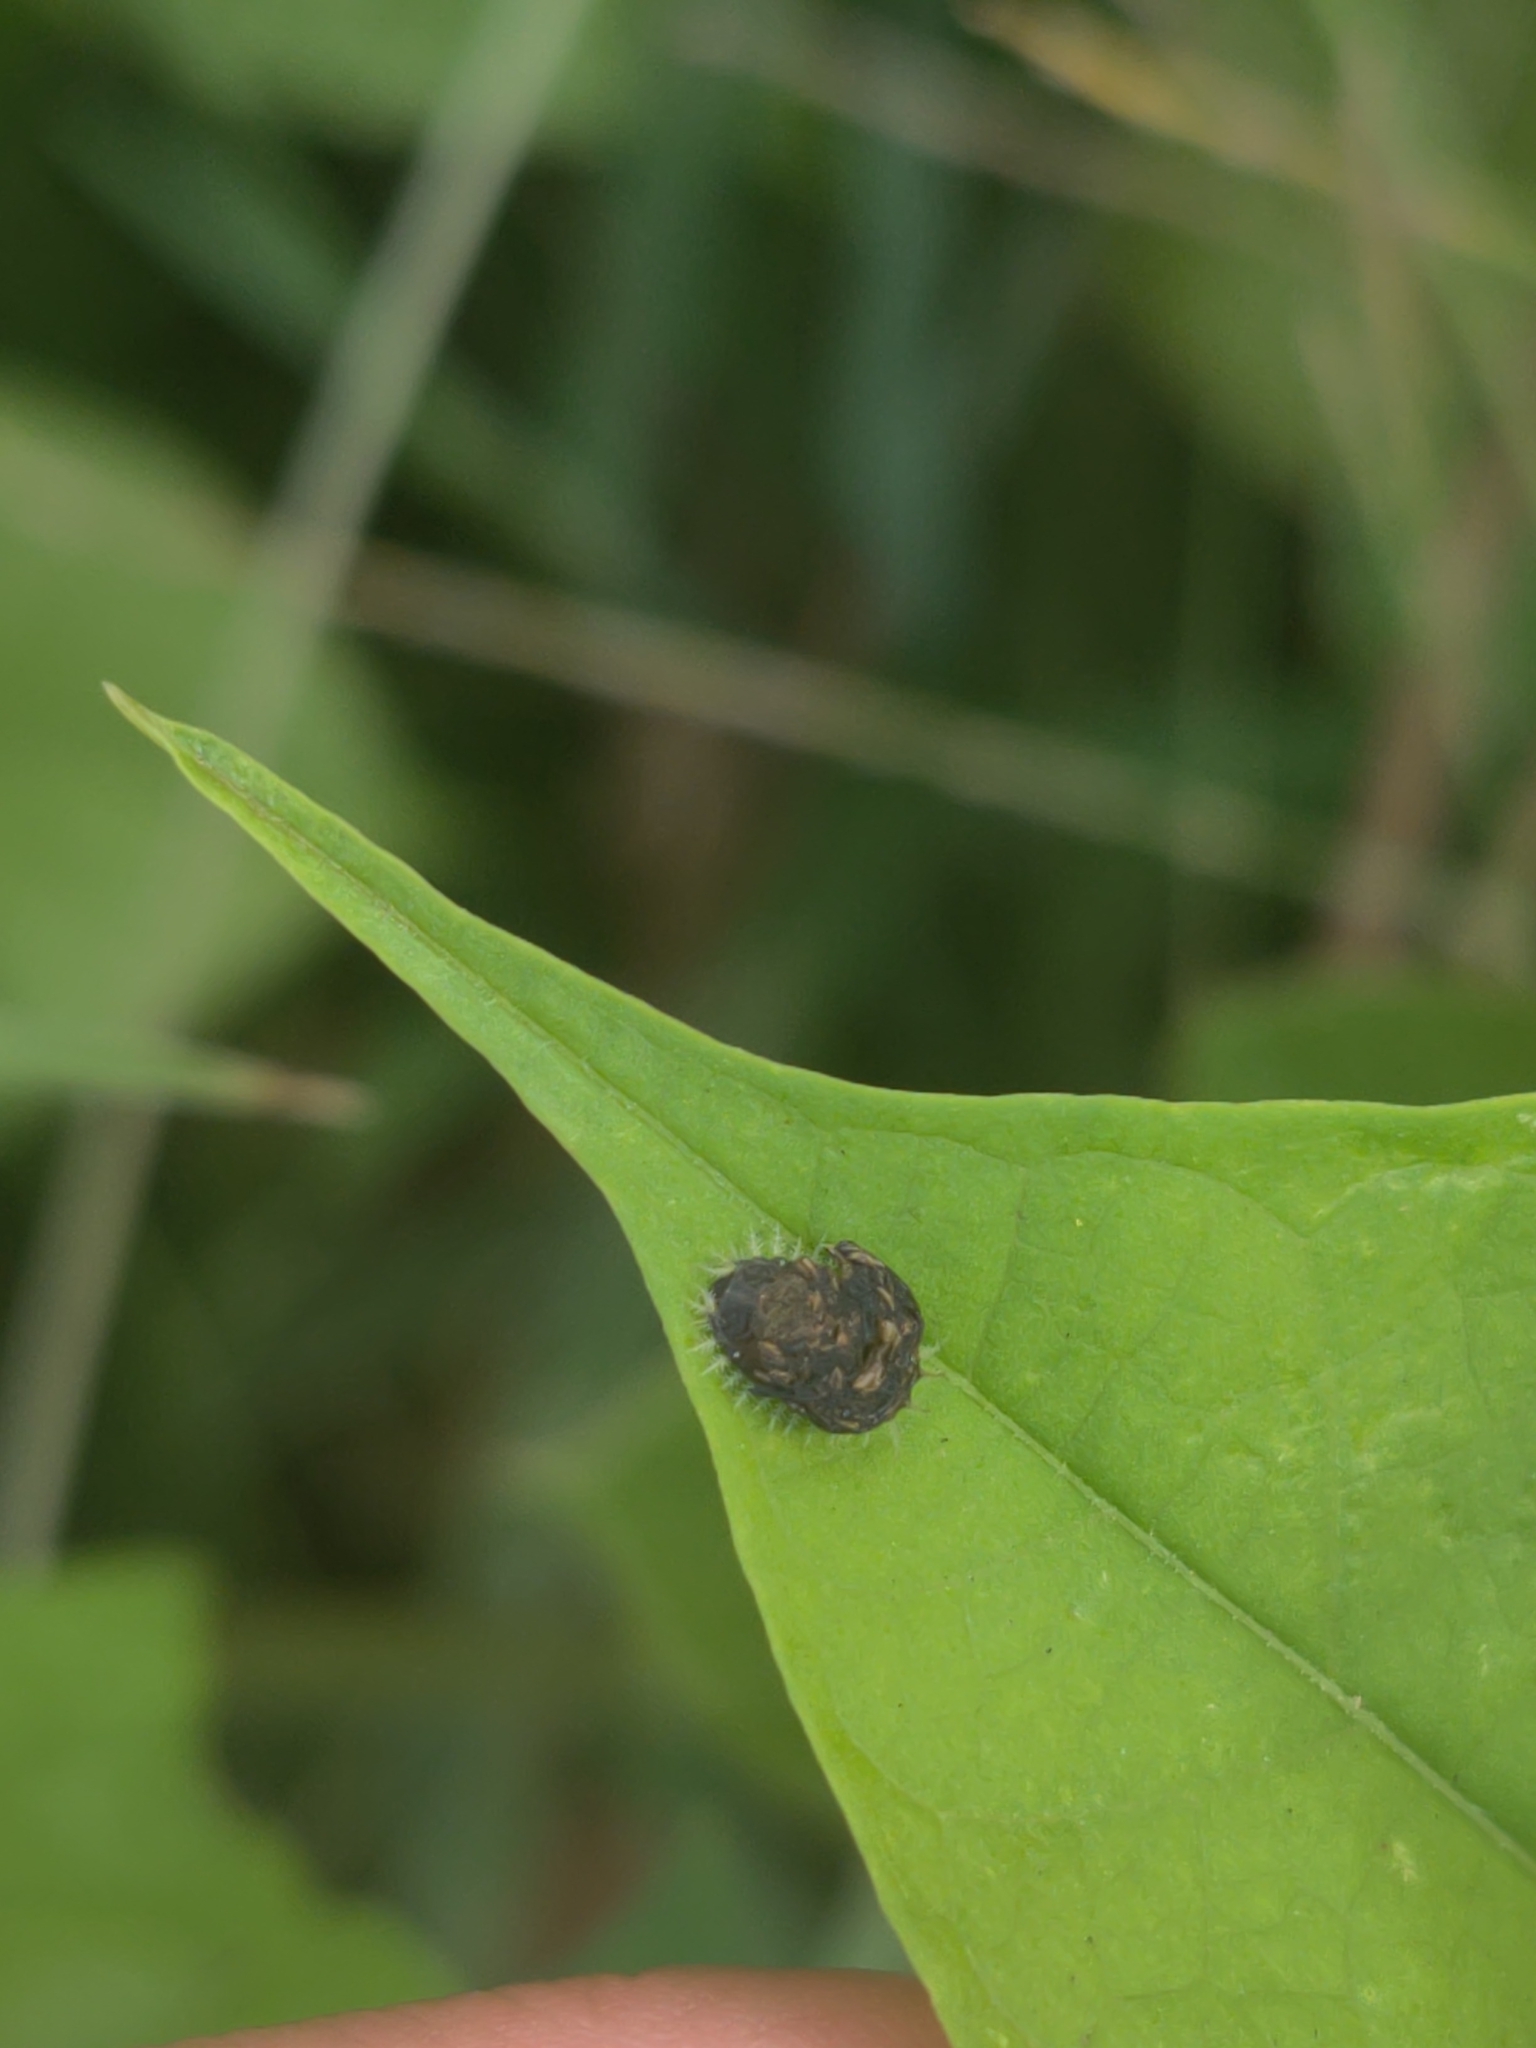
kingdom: Animalia
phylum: Arthropoda
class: Insecta
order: Coleoptera
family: Chrysomelidae
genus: Charidotella
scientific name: Charidotella sexpunctata
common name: Golden tortoise beetle
